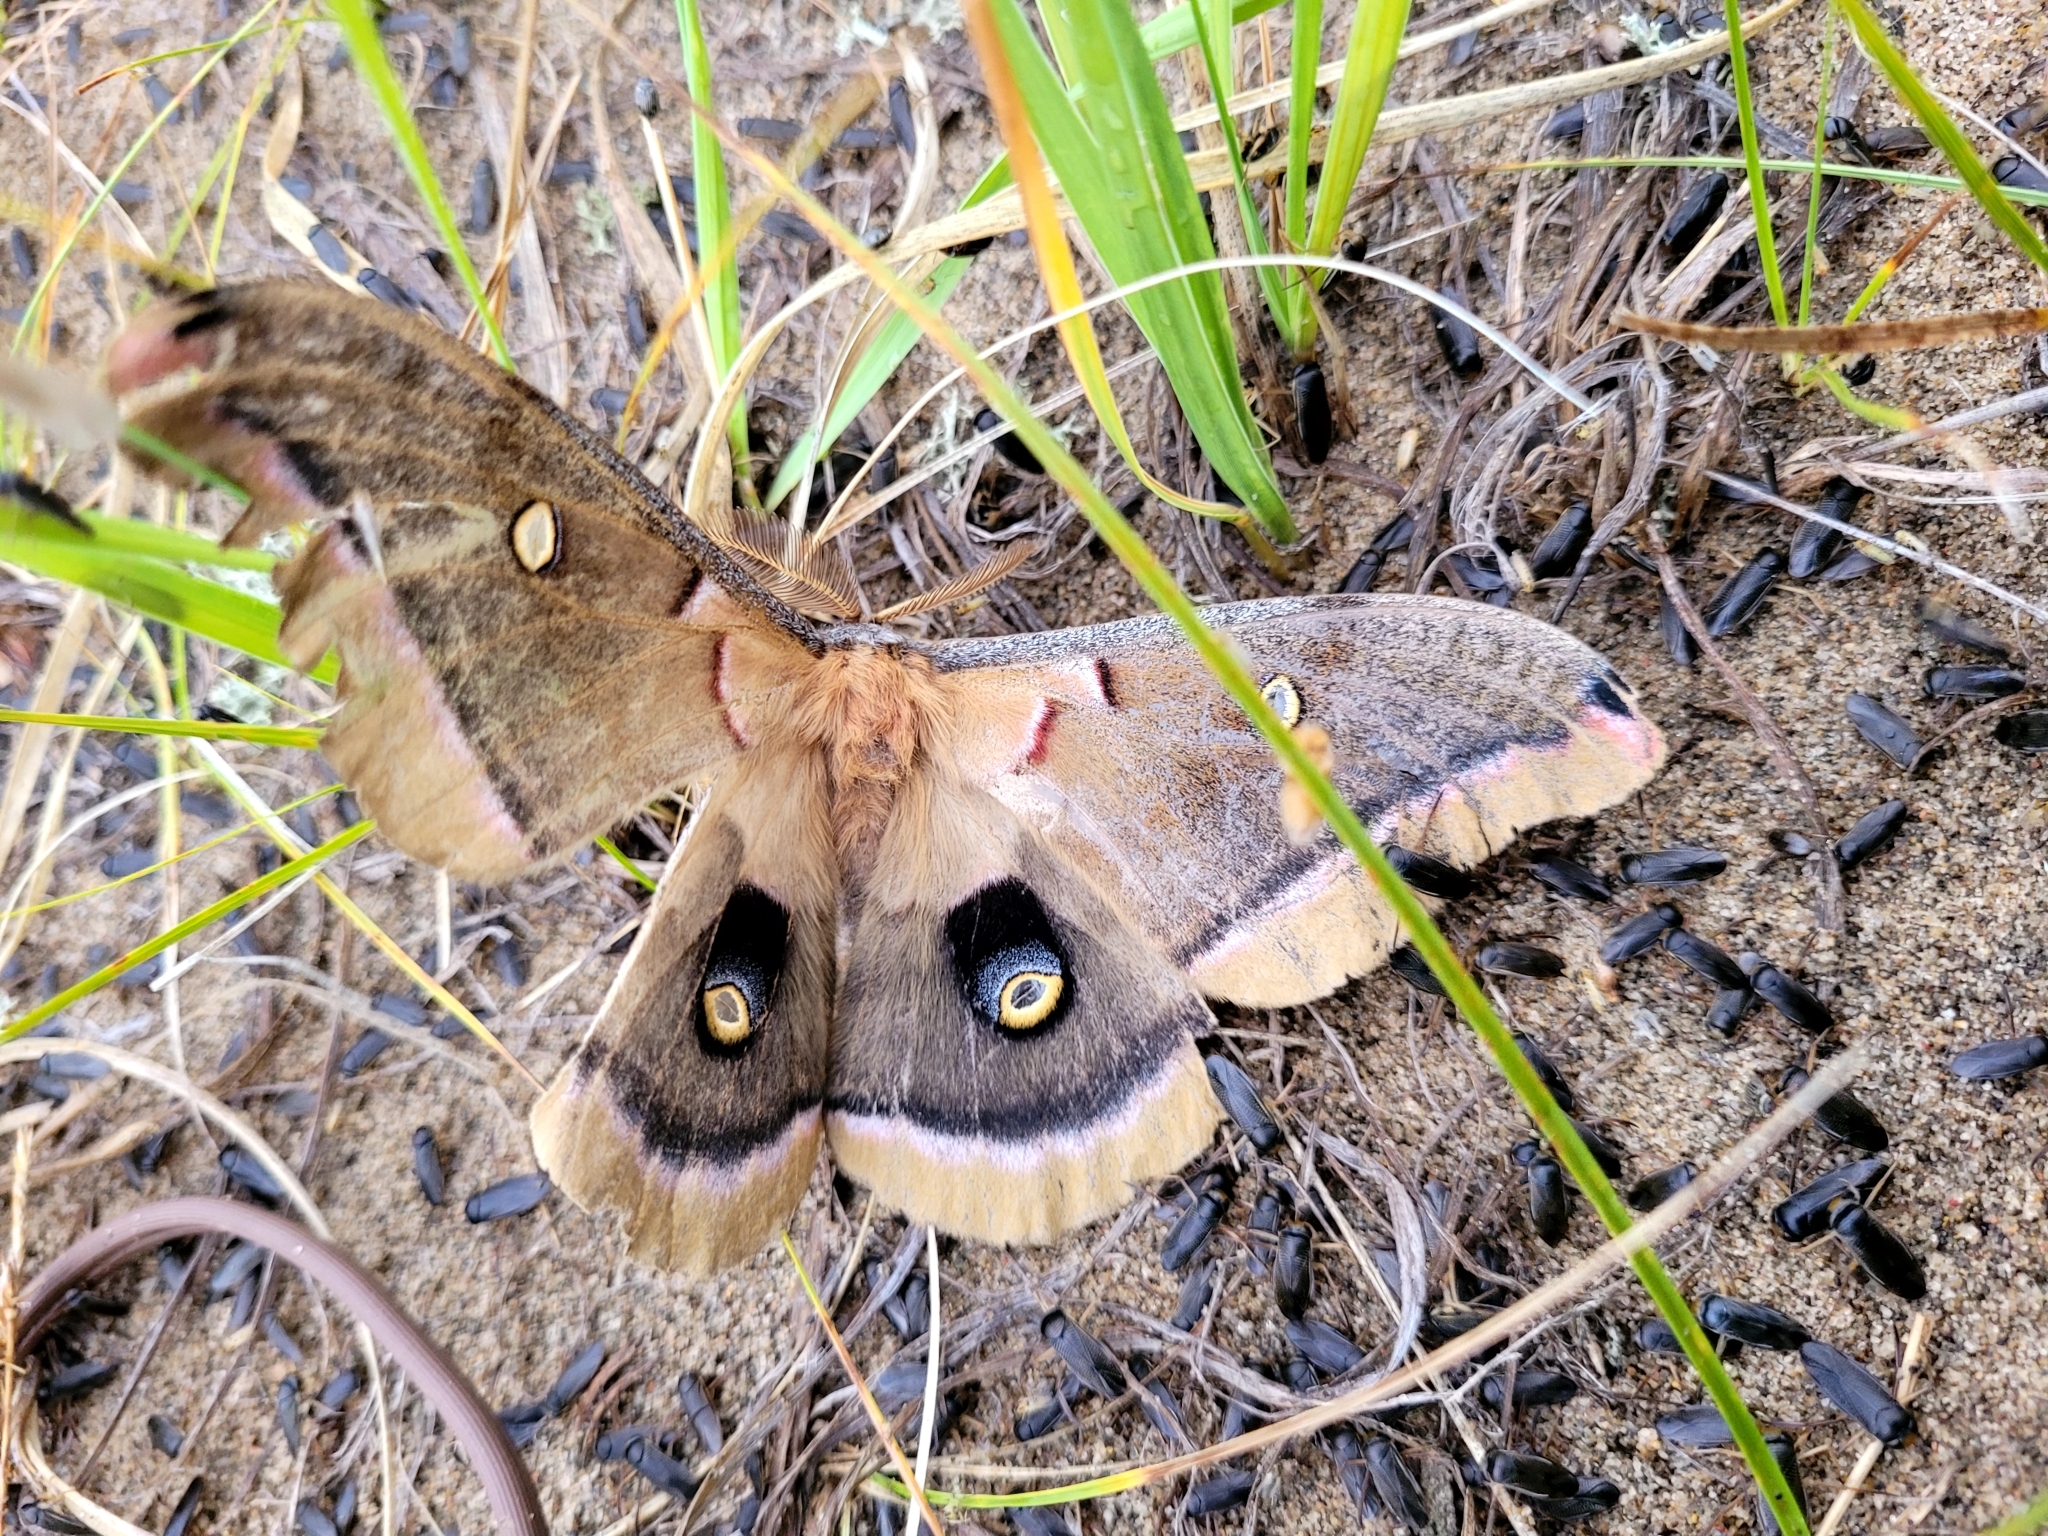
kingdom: Animalia
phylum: Arthropoda
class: Insecta
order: Lepidoptera
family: Saturniidae
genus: Antheraea
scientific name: Antheraea polyphemus
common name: Polyphemus moth
